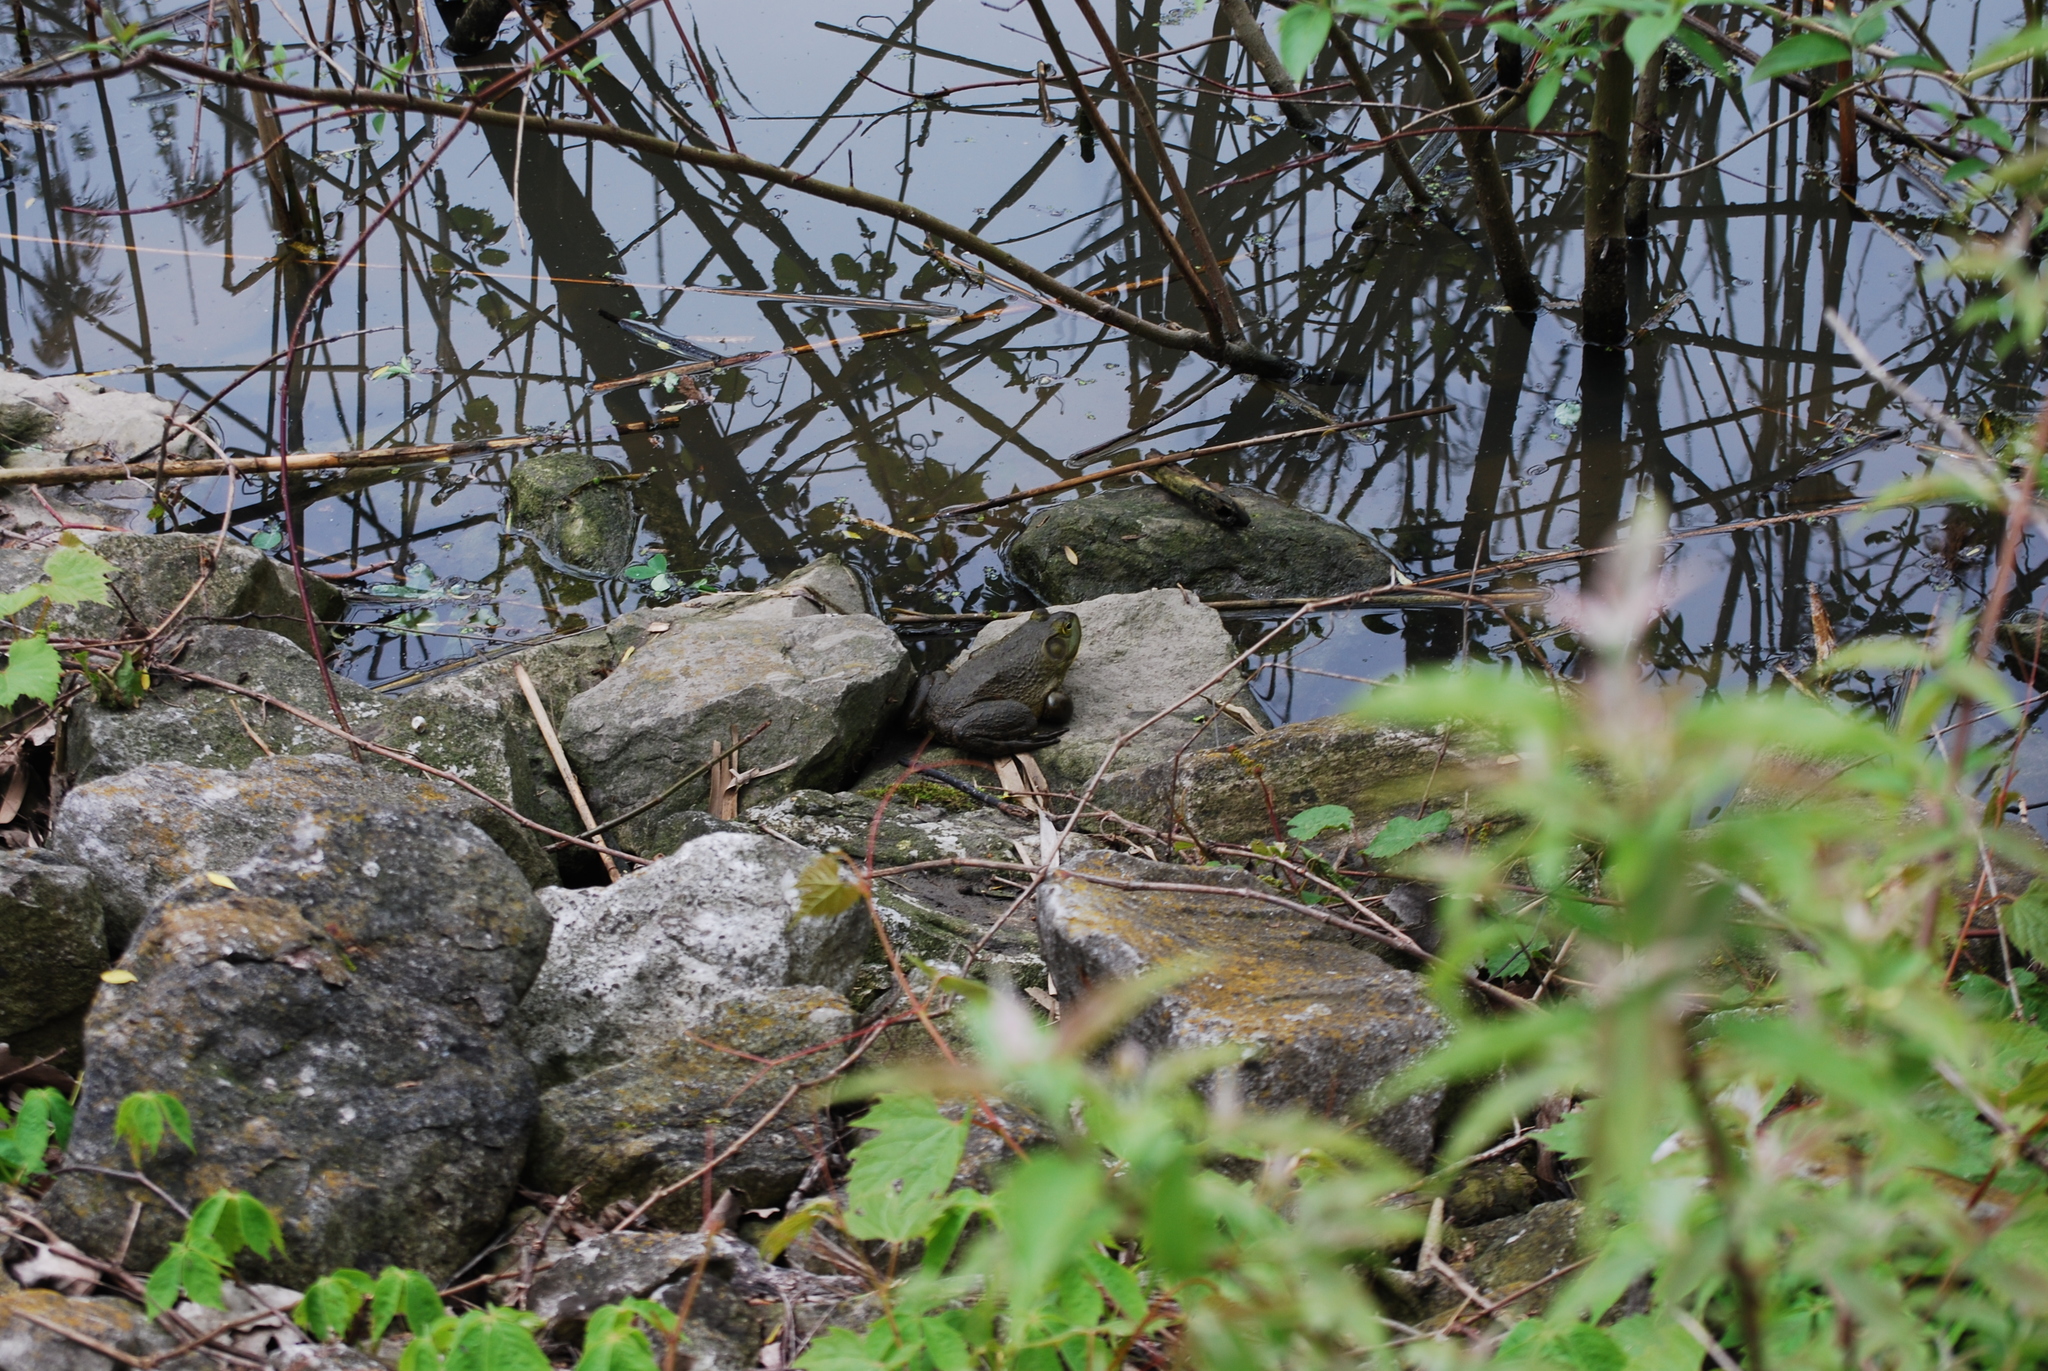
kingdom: Animalia
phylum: Chordata
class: Amphibia
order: Anura
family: Ranidae
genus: Lithobates
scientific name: Lithobates catesbeianus
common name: American bullfrog
